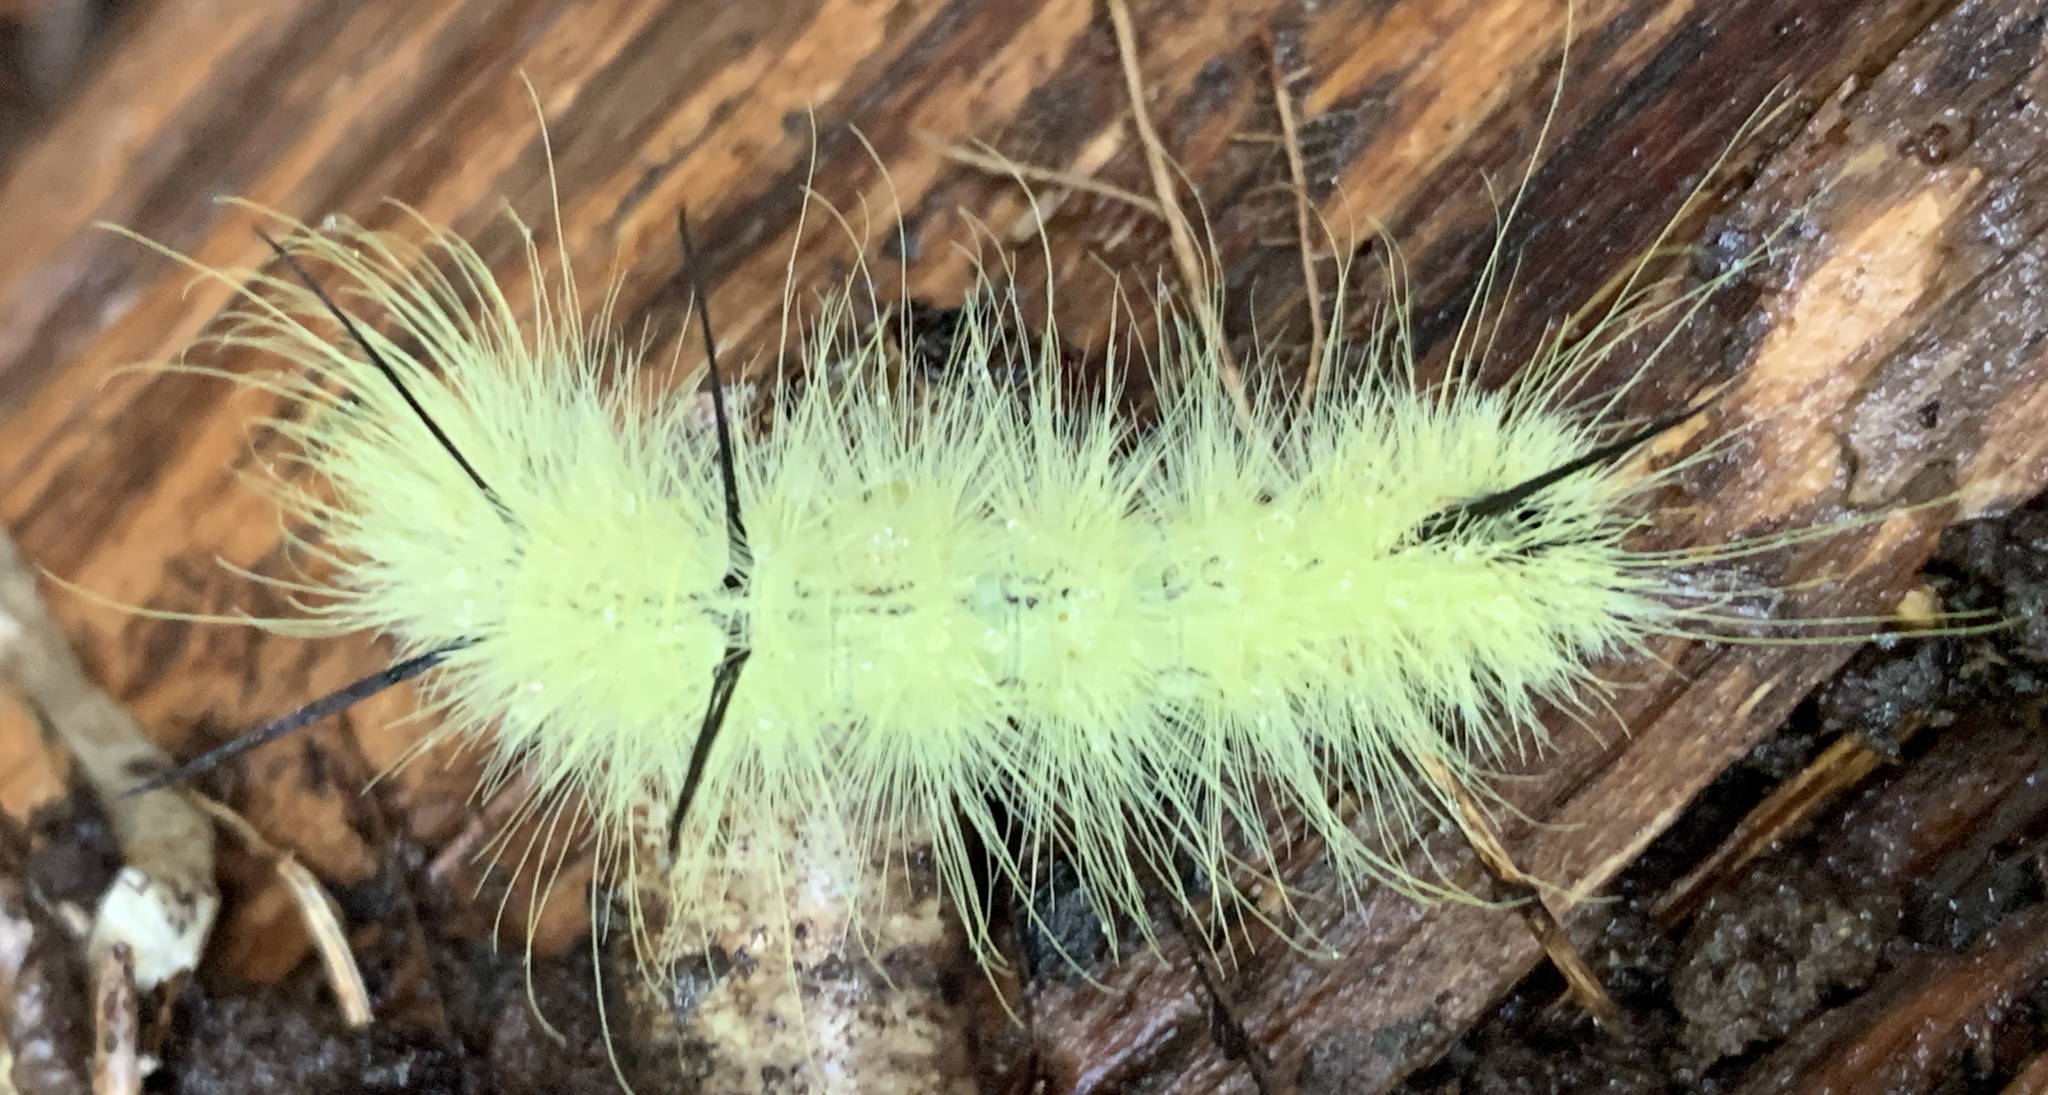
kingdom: Animalia
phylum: Arthropoda
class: Insecta
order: Lepidoptera
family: Noctuidae
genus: Acronicta
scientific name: Acronicta americana
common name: American dagger
